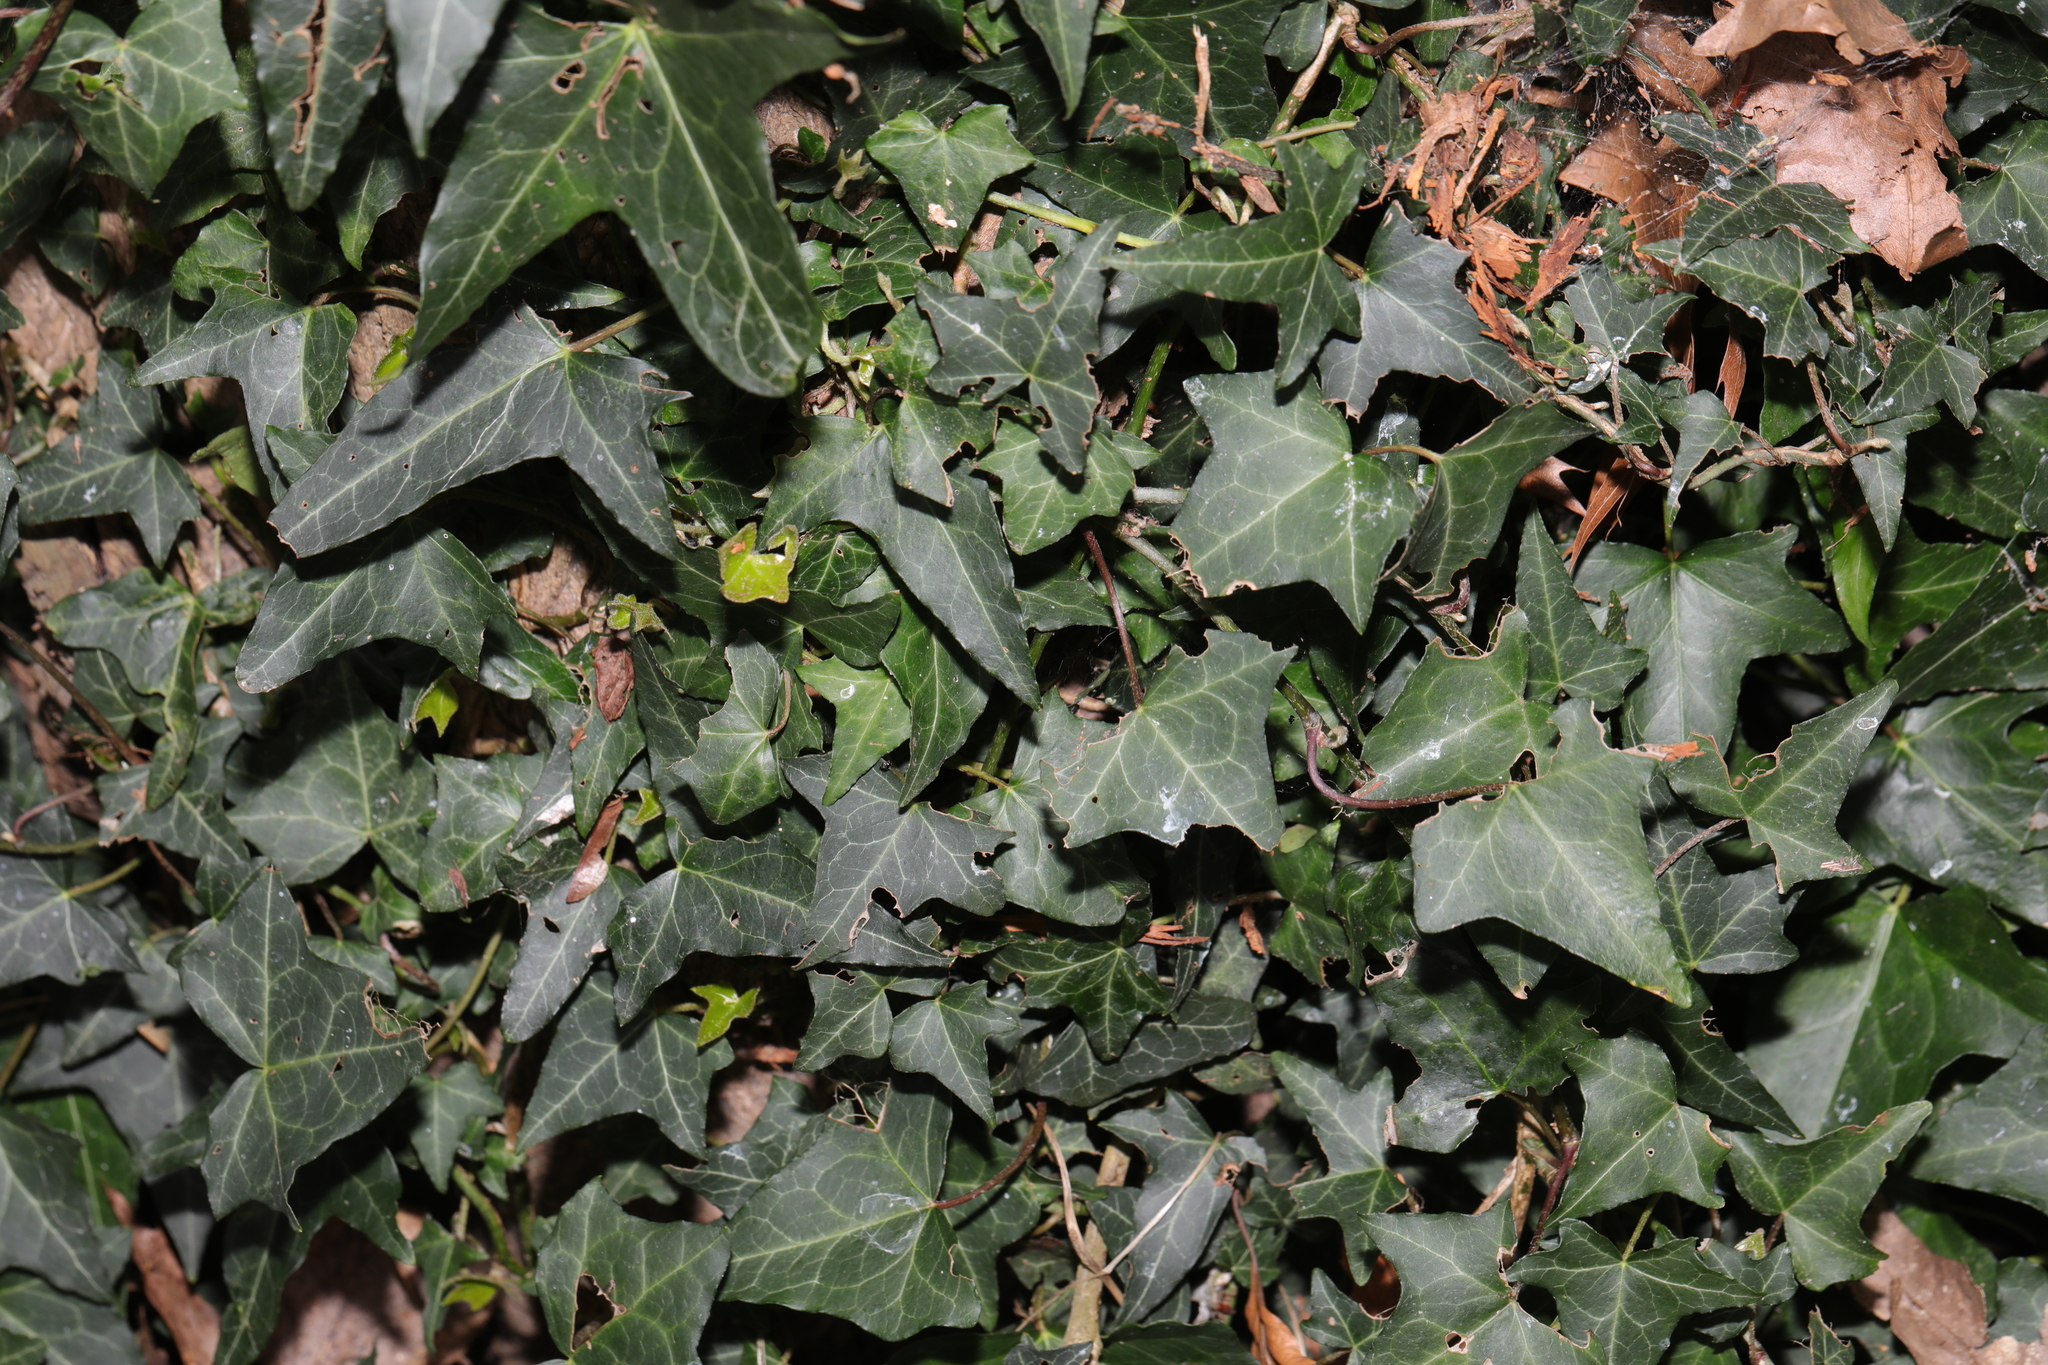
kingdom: Plantae
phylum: Tracheophyta
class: Magnoliopsida
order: Apiales
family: Araliaceae
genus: Hedera
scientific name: Hedera helix
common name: Ivy
